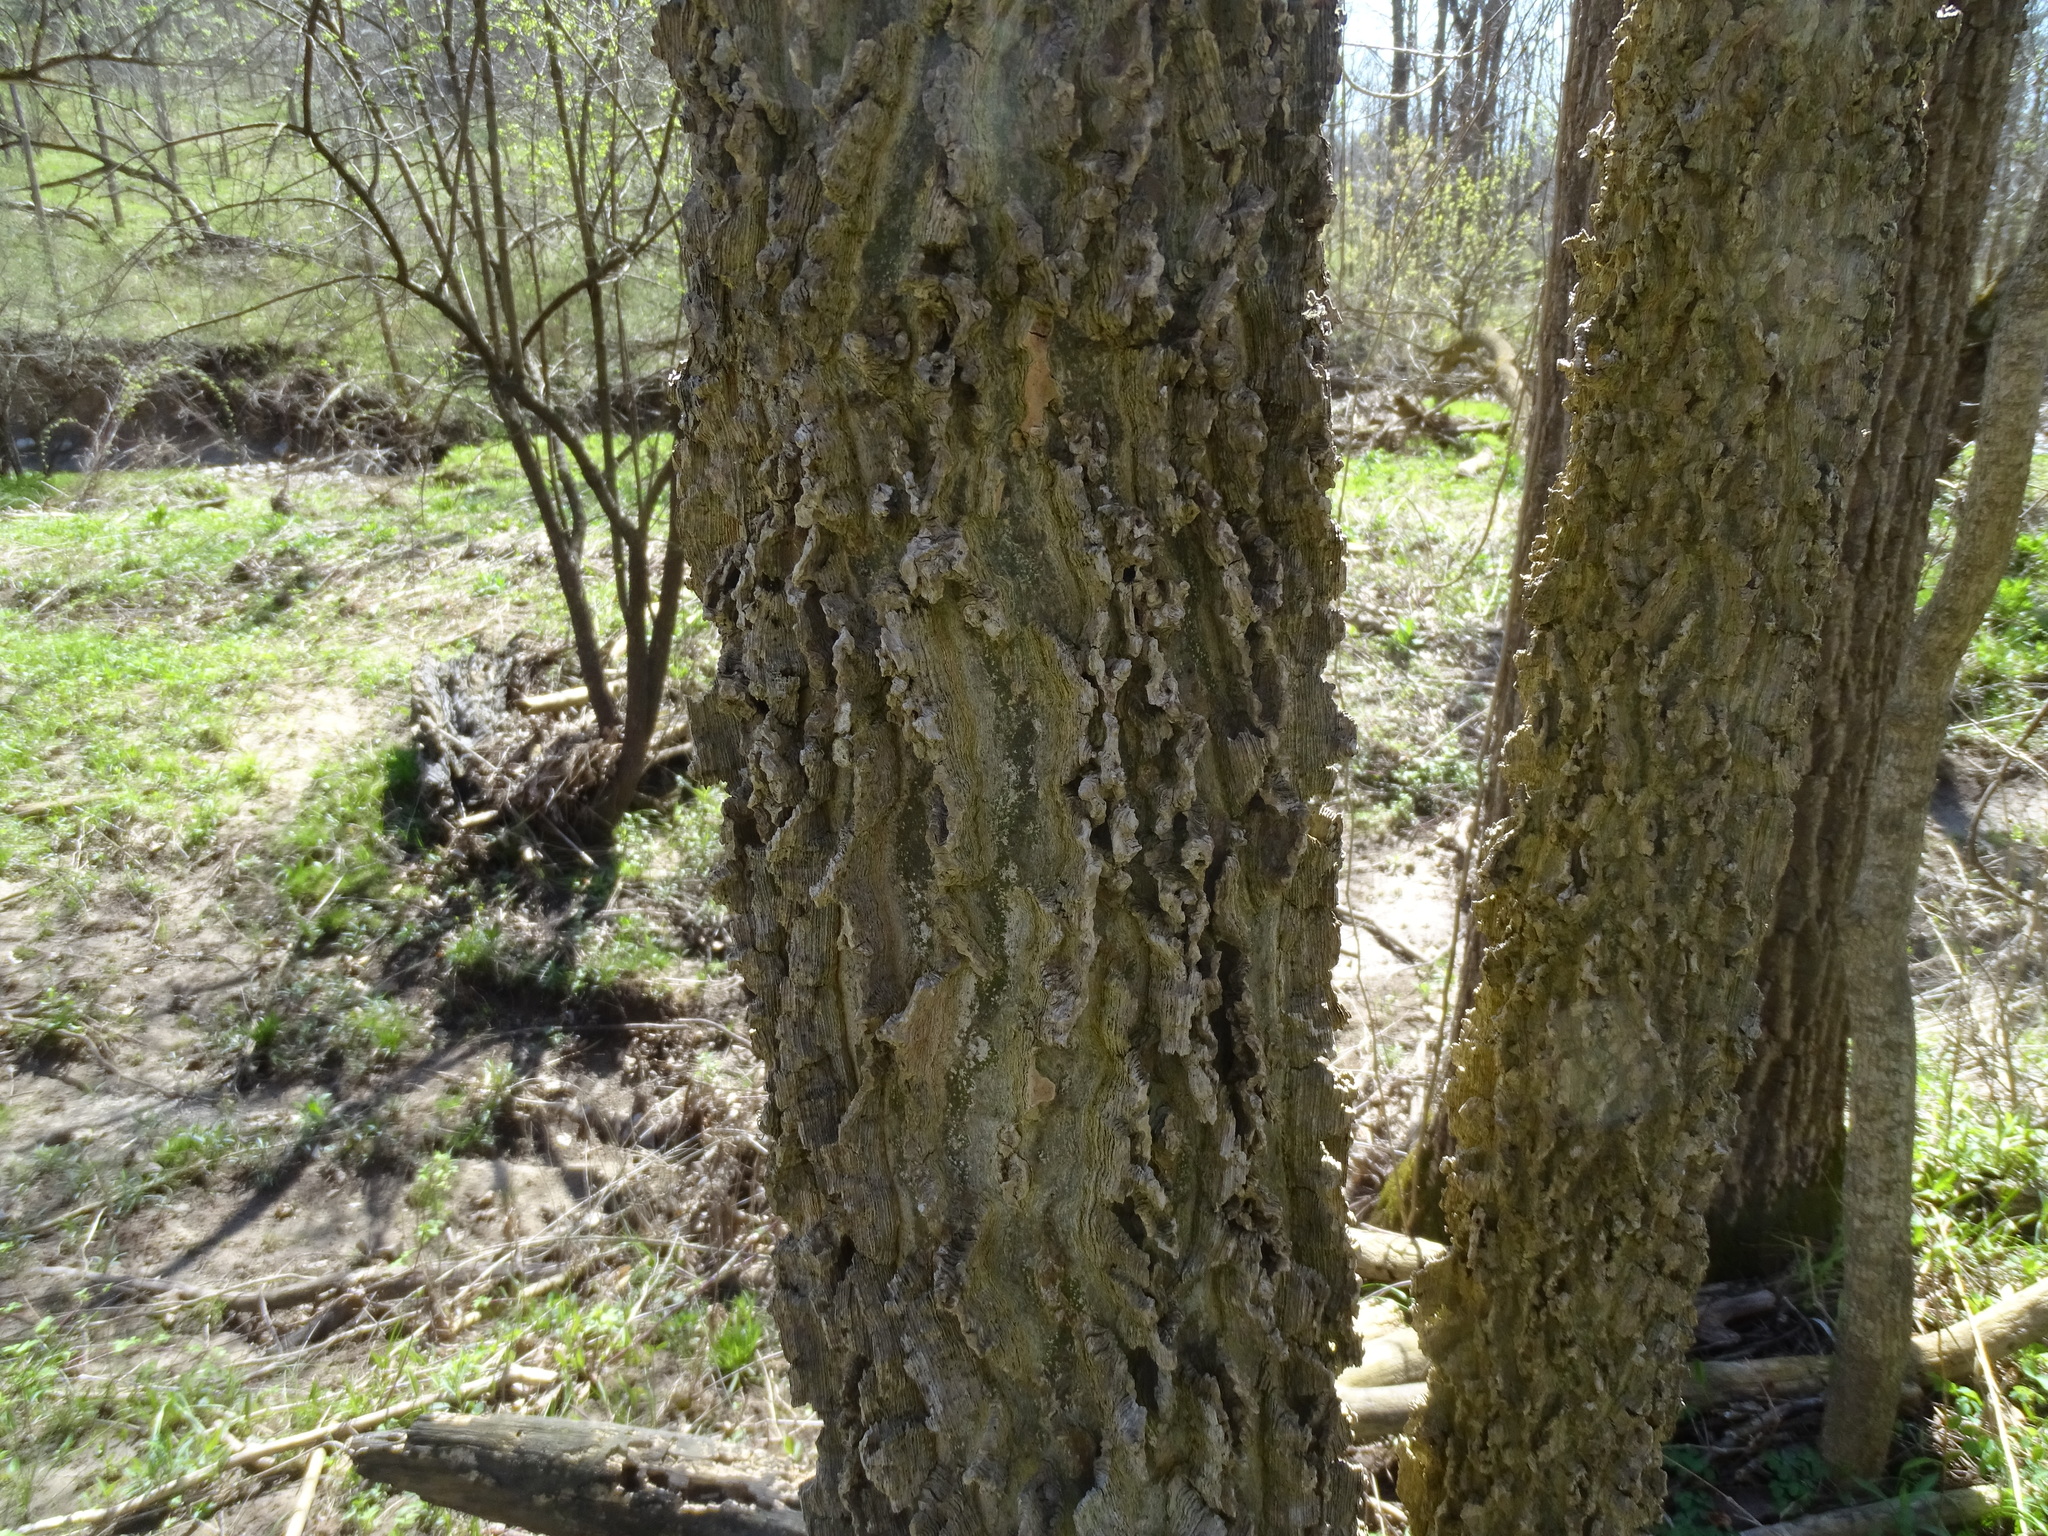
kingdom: Plantae
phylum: Tracheophyta
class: Magnoliopsida
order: Rosales
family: Cannabaceae
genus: Celtis
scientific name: Celtis occidentalis
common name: Common hackberry
